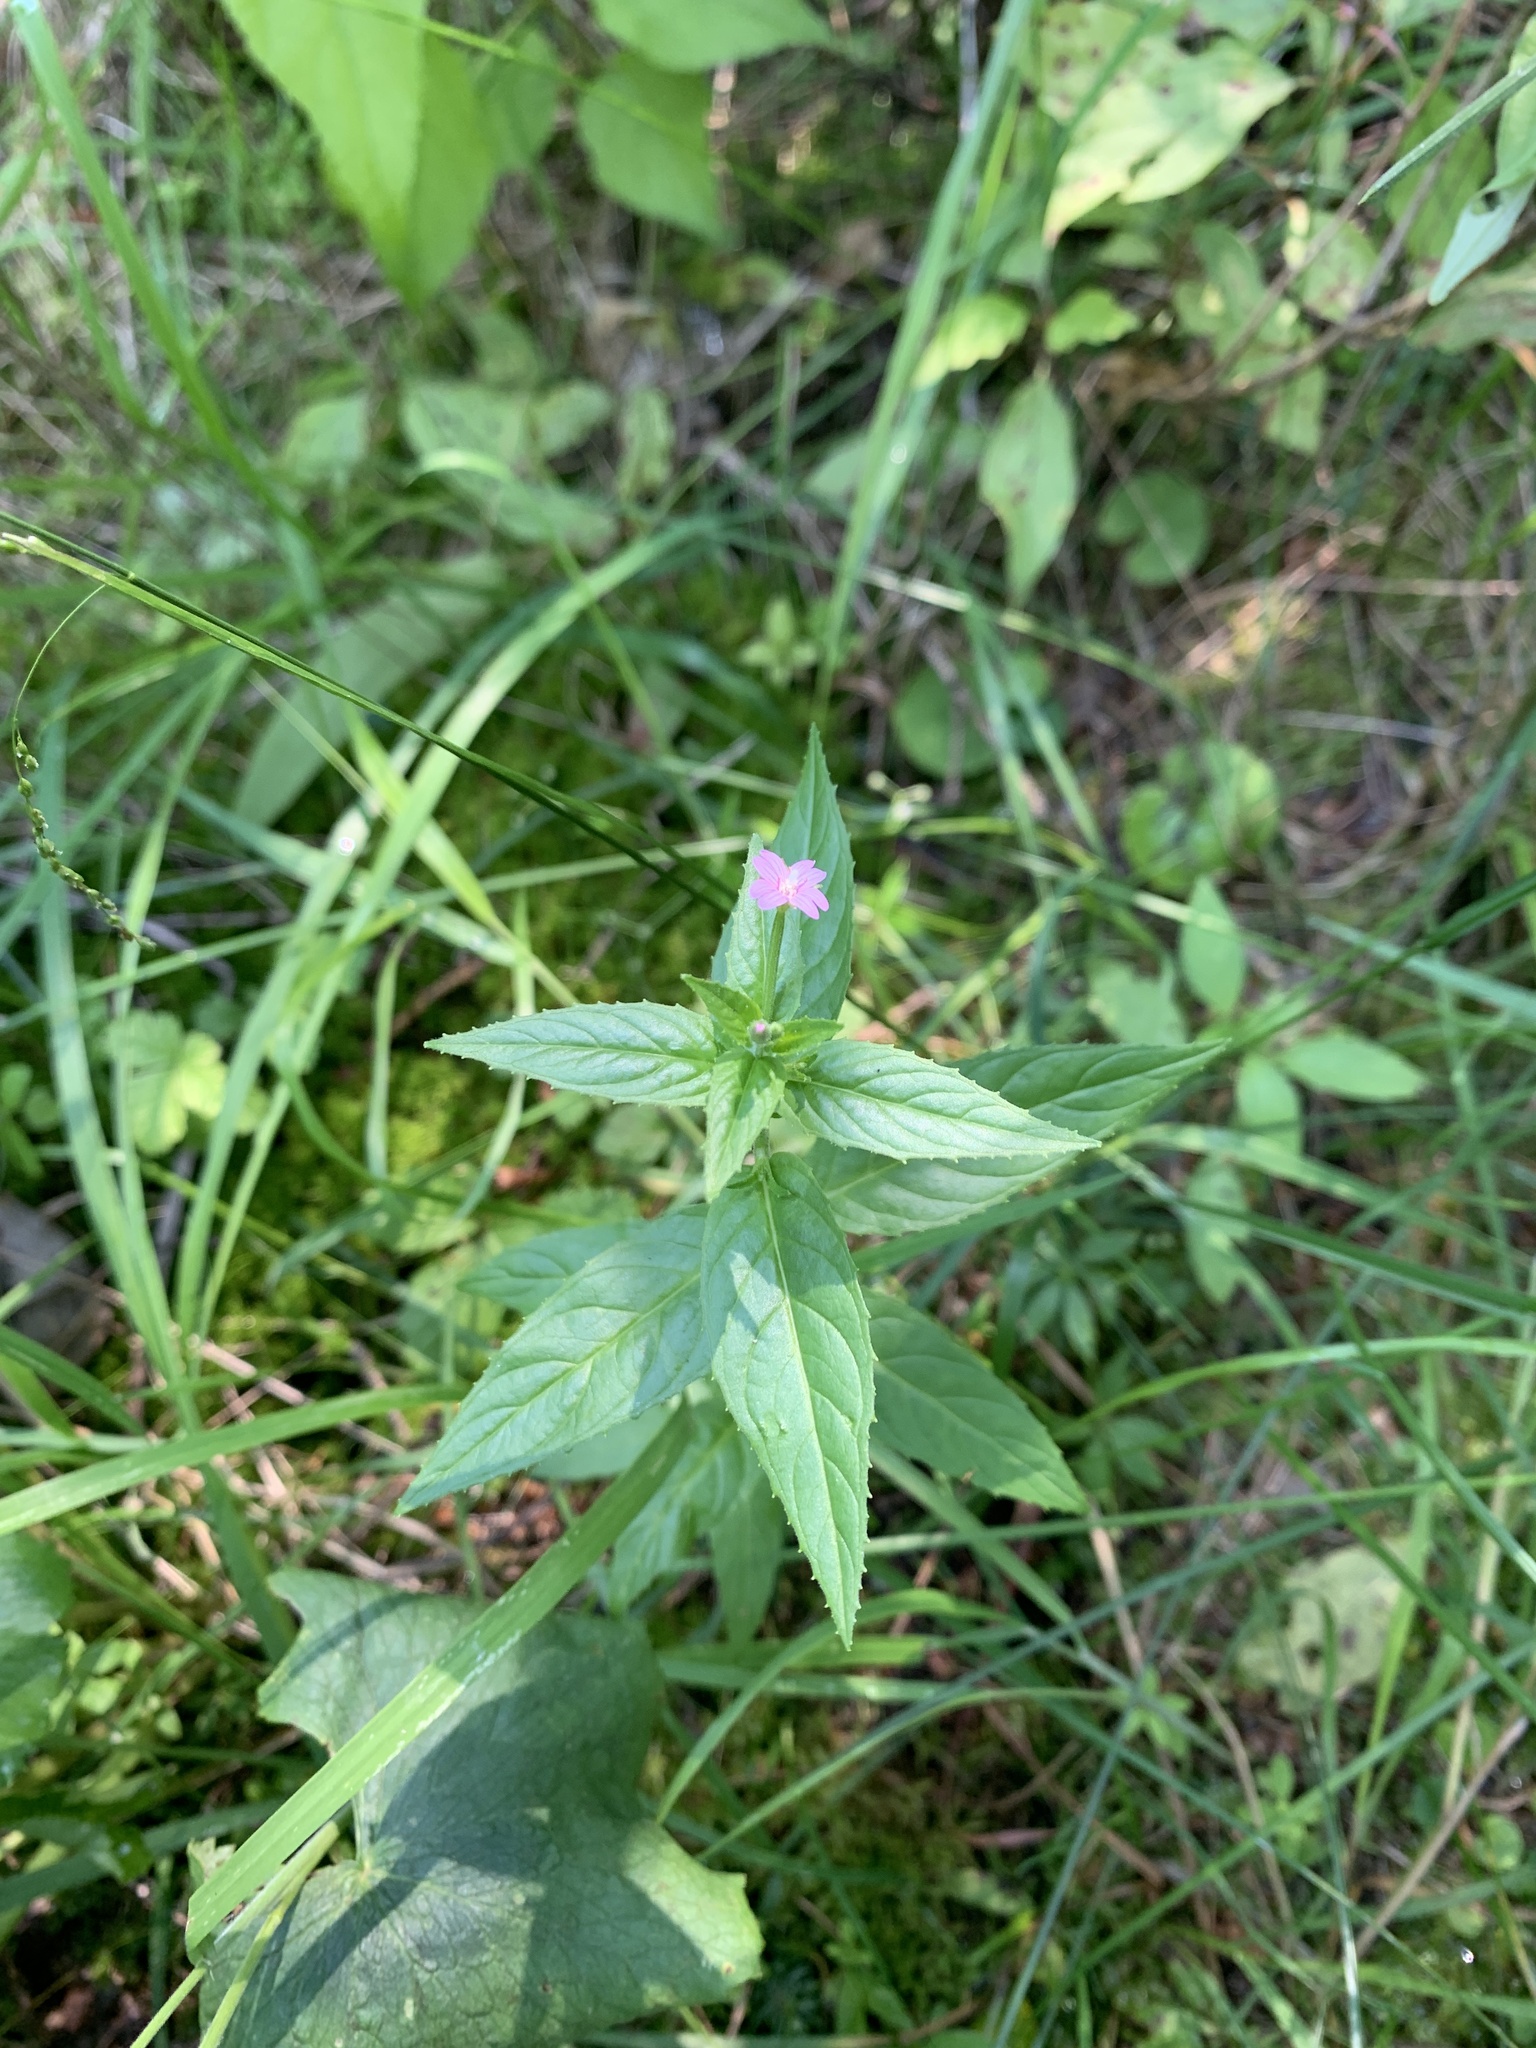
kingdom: Plantae
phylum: Tracheophyta
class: Magnoliopsida
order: Myrtales
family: Onagraceae
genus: Epilobium
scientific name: Epilobium ciliatum
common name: American willowherb
